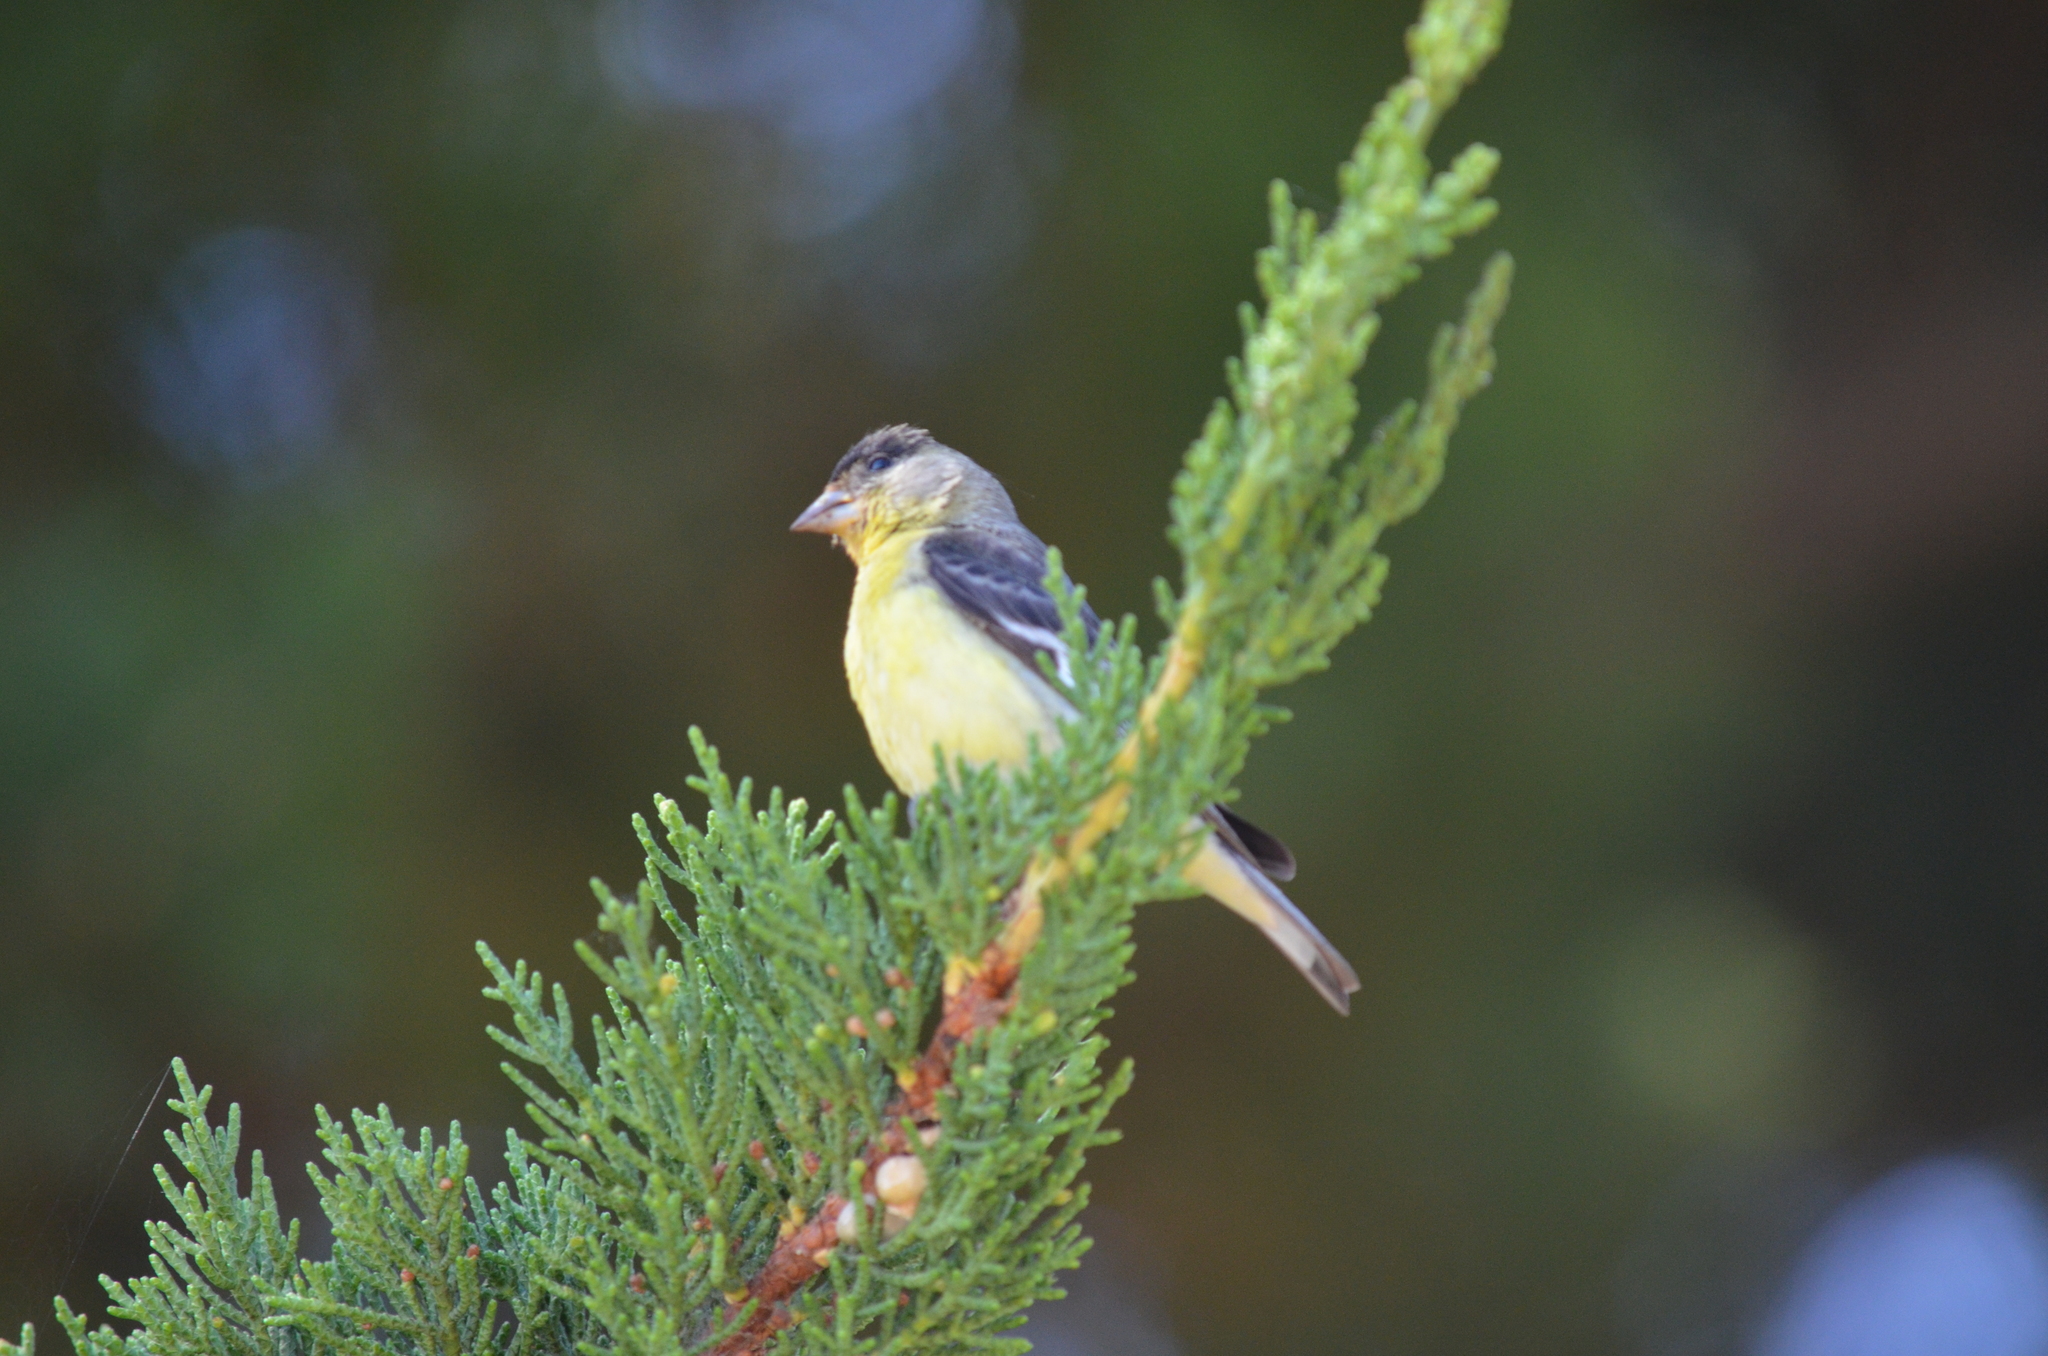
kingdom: Animalia
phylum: Chordata
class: Aves
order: Passeriformes
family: Fringillidae
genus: Spinus
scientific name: Spinus psaltria
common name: Lesser goldfinch
